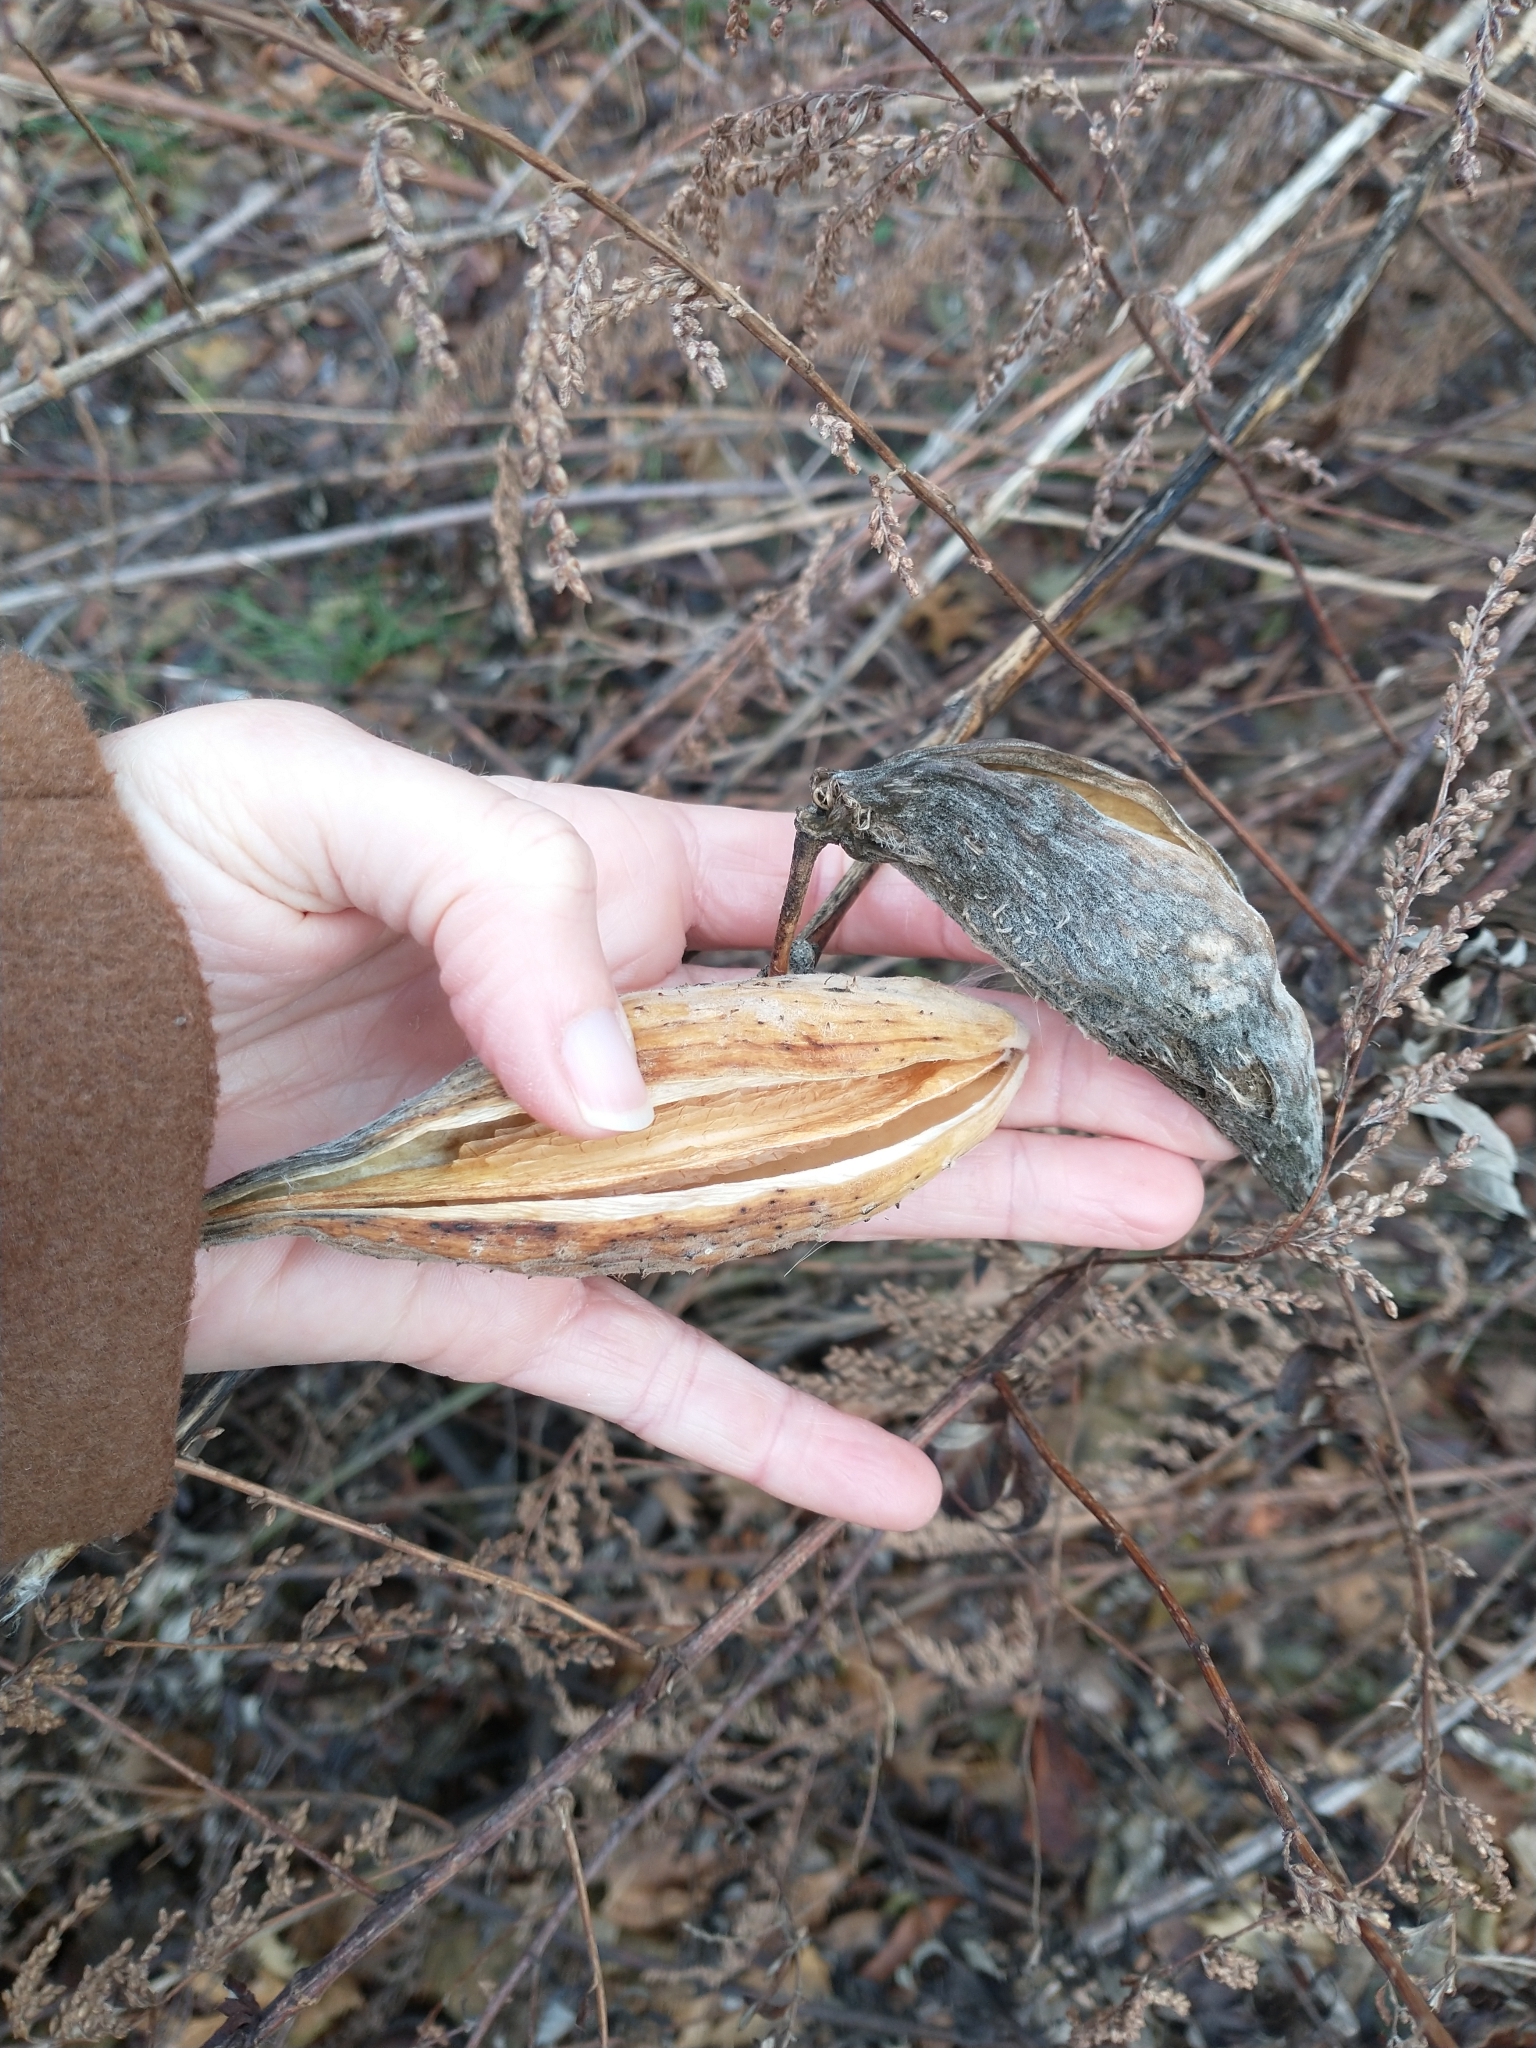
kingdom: Plantae
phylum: Tracheophyta
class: Magnoliopsida
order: Gentianales
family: Apocynaceae
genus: Asclepias
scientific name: Asclepias syriaca
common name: Common milkweed
